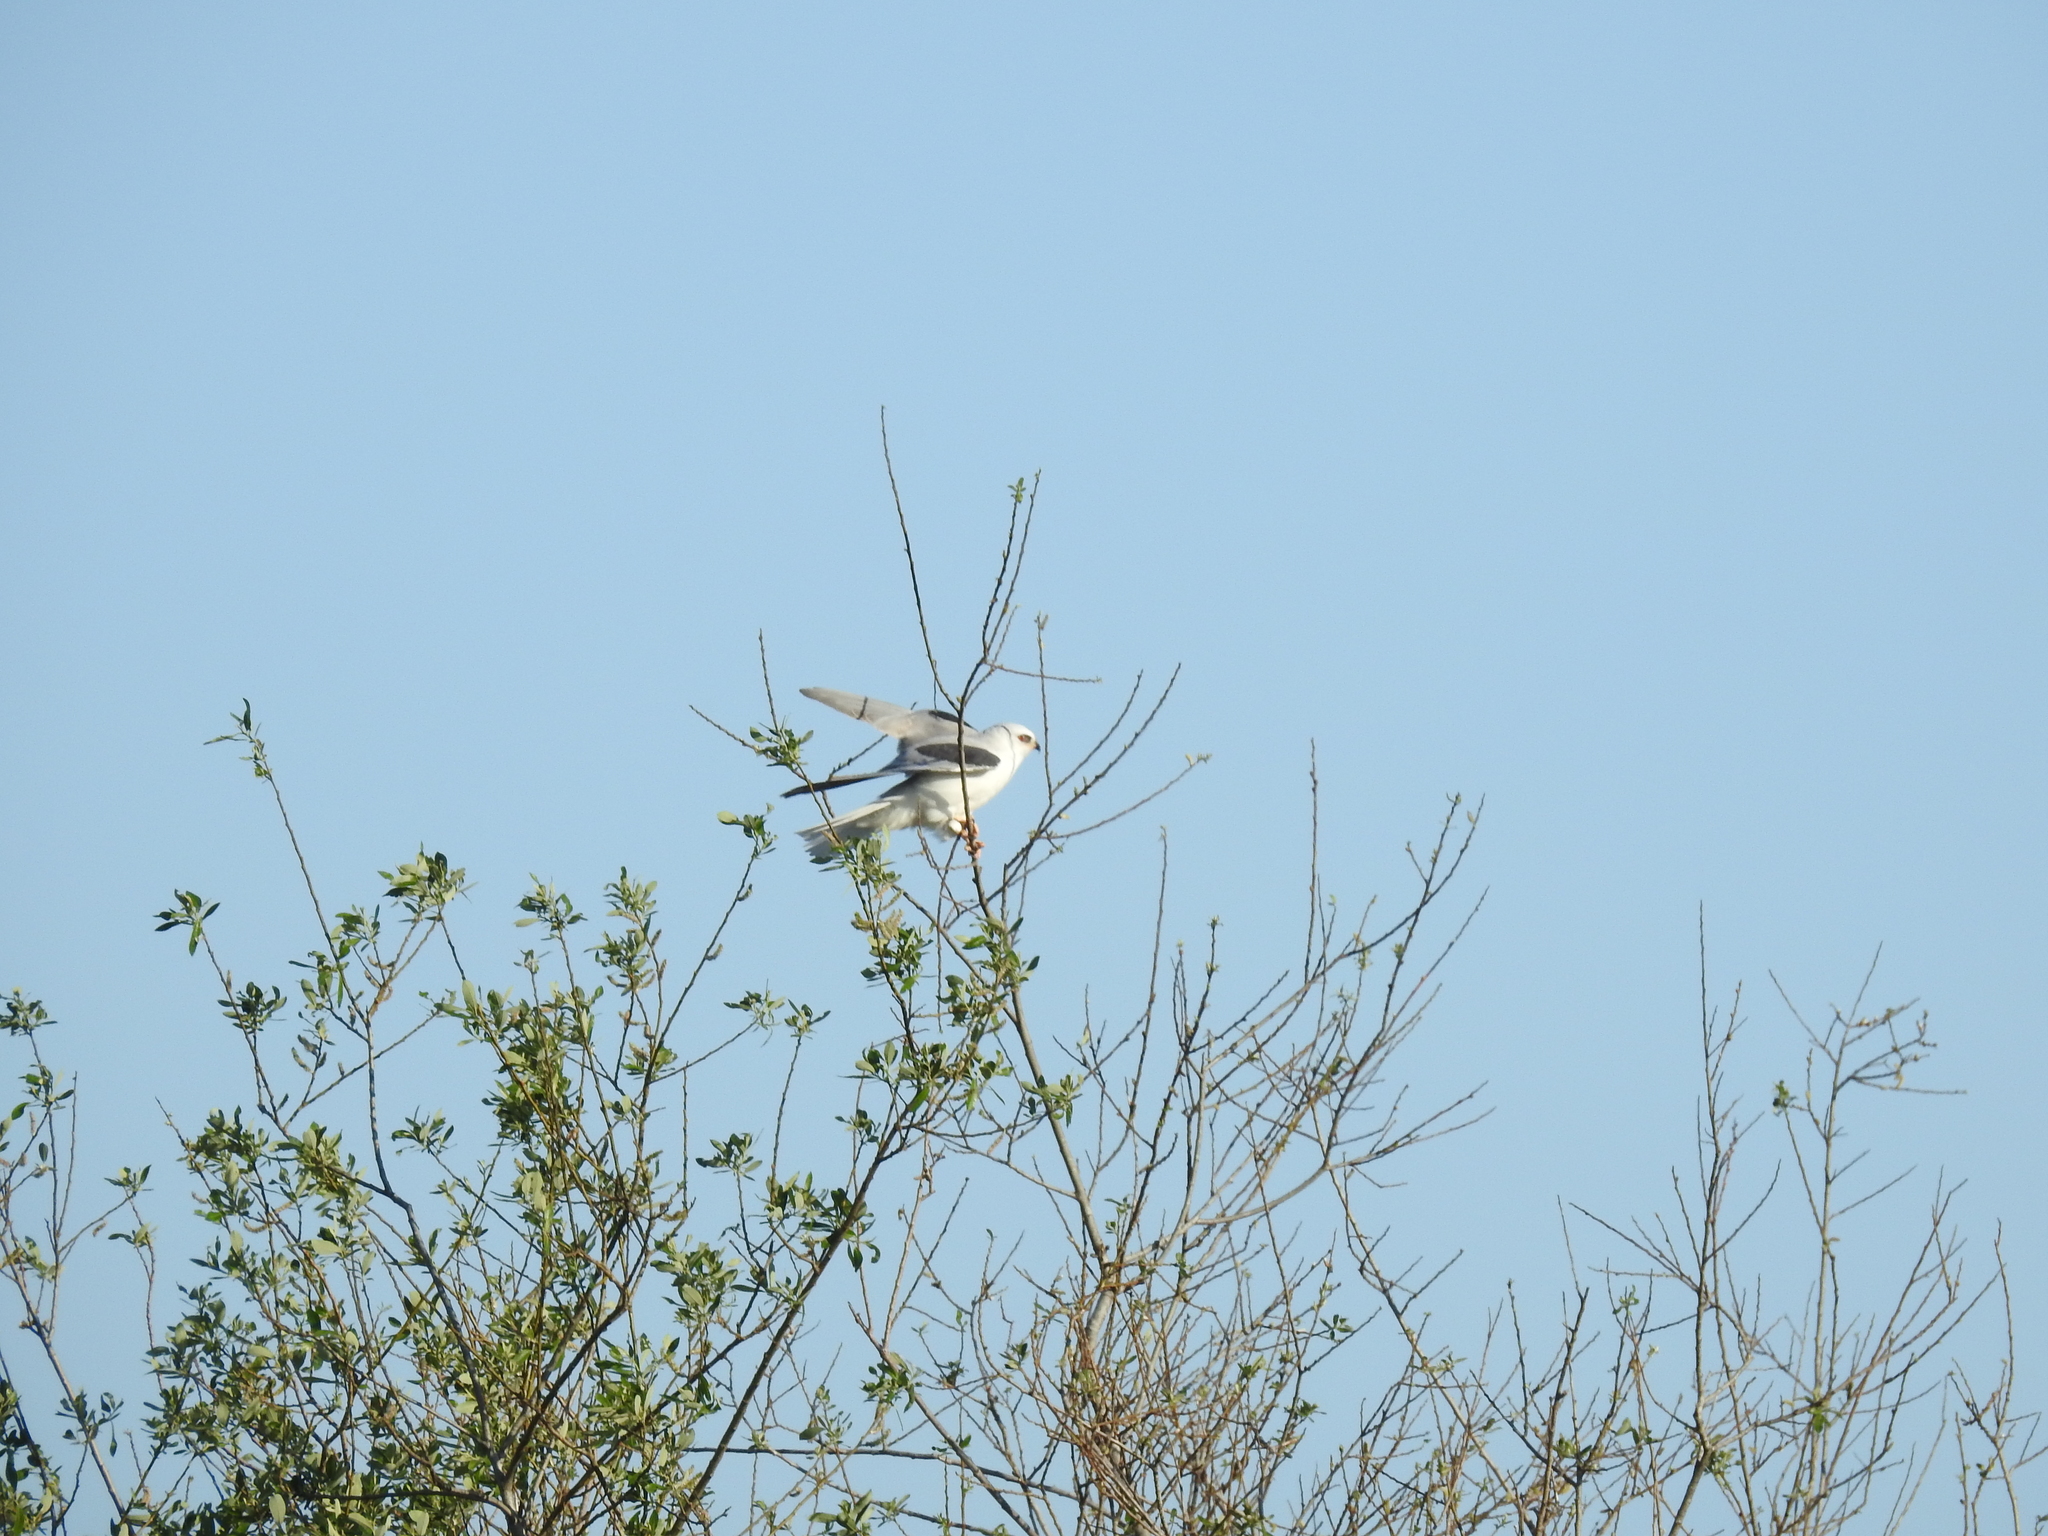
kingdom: Animalia
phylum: Chordata
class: Aves
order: Accipitriformes
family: Accipitridae
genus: Elanus
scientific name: Elanus leucurus
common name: White-tailed kite
